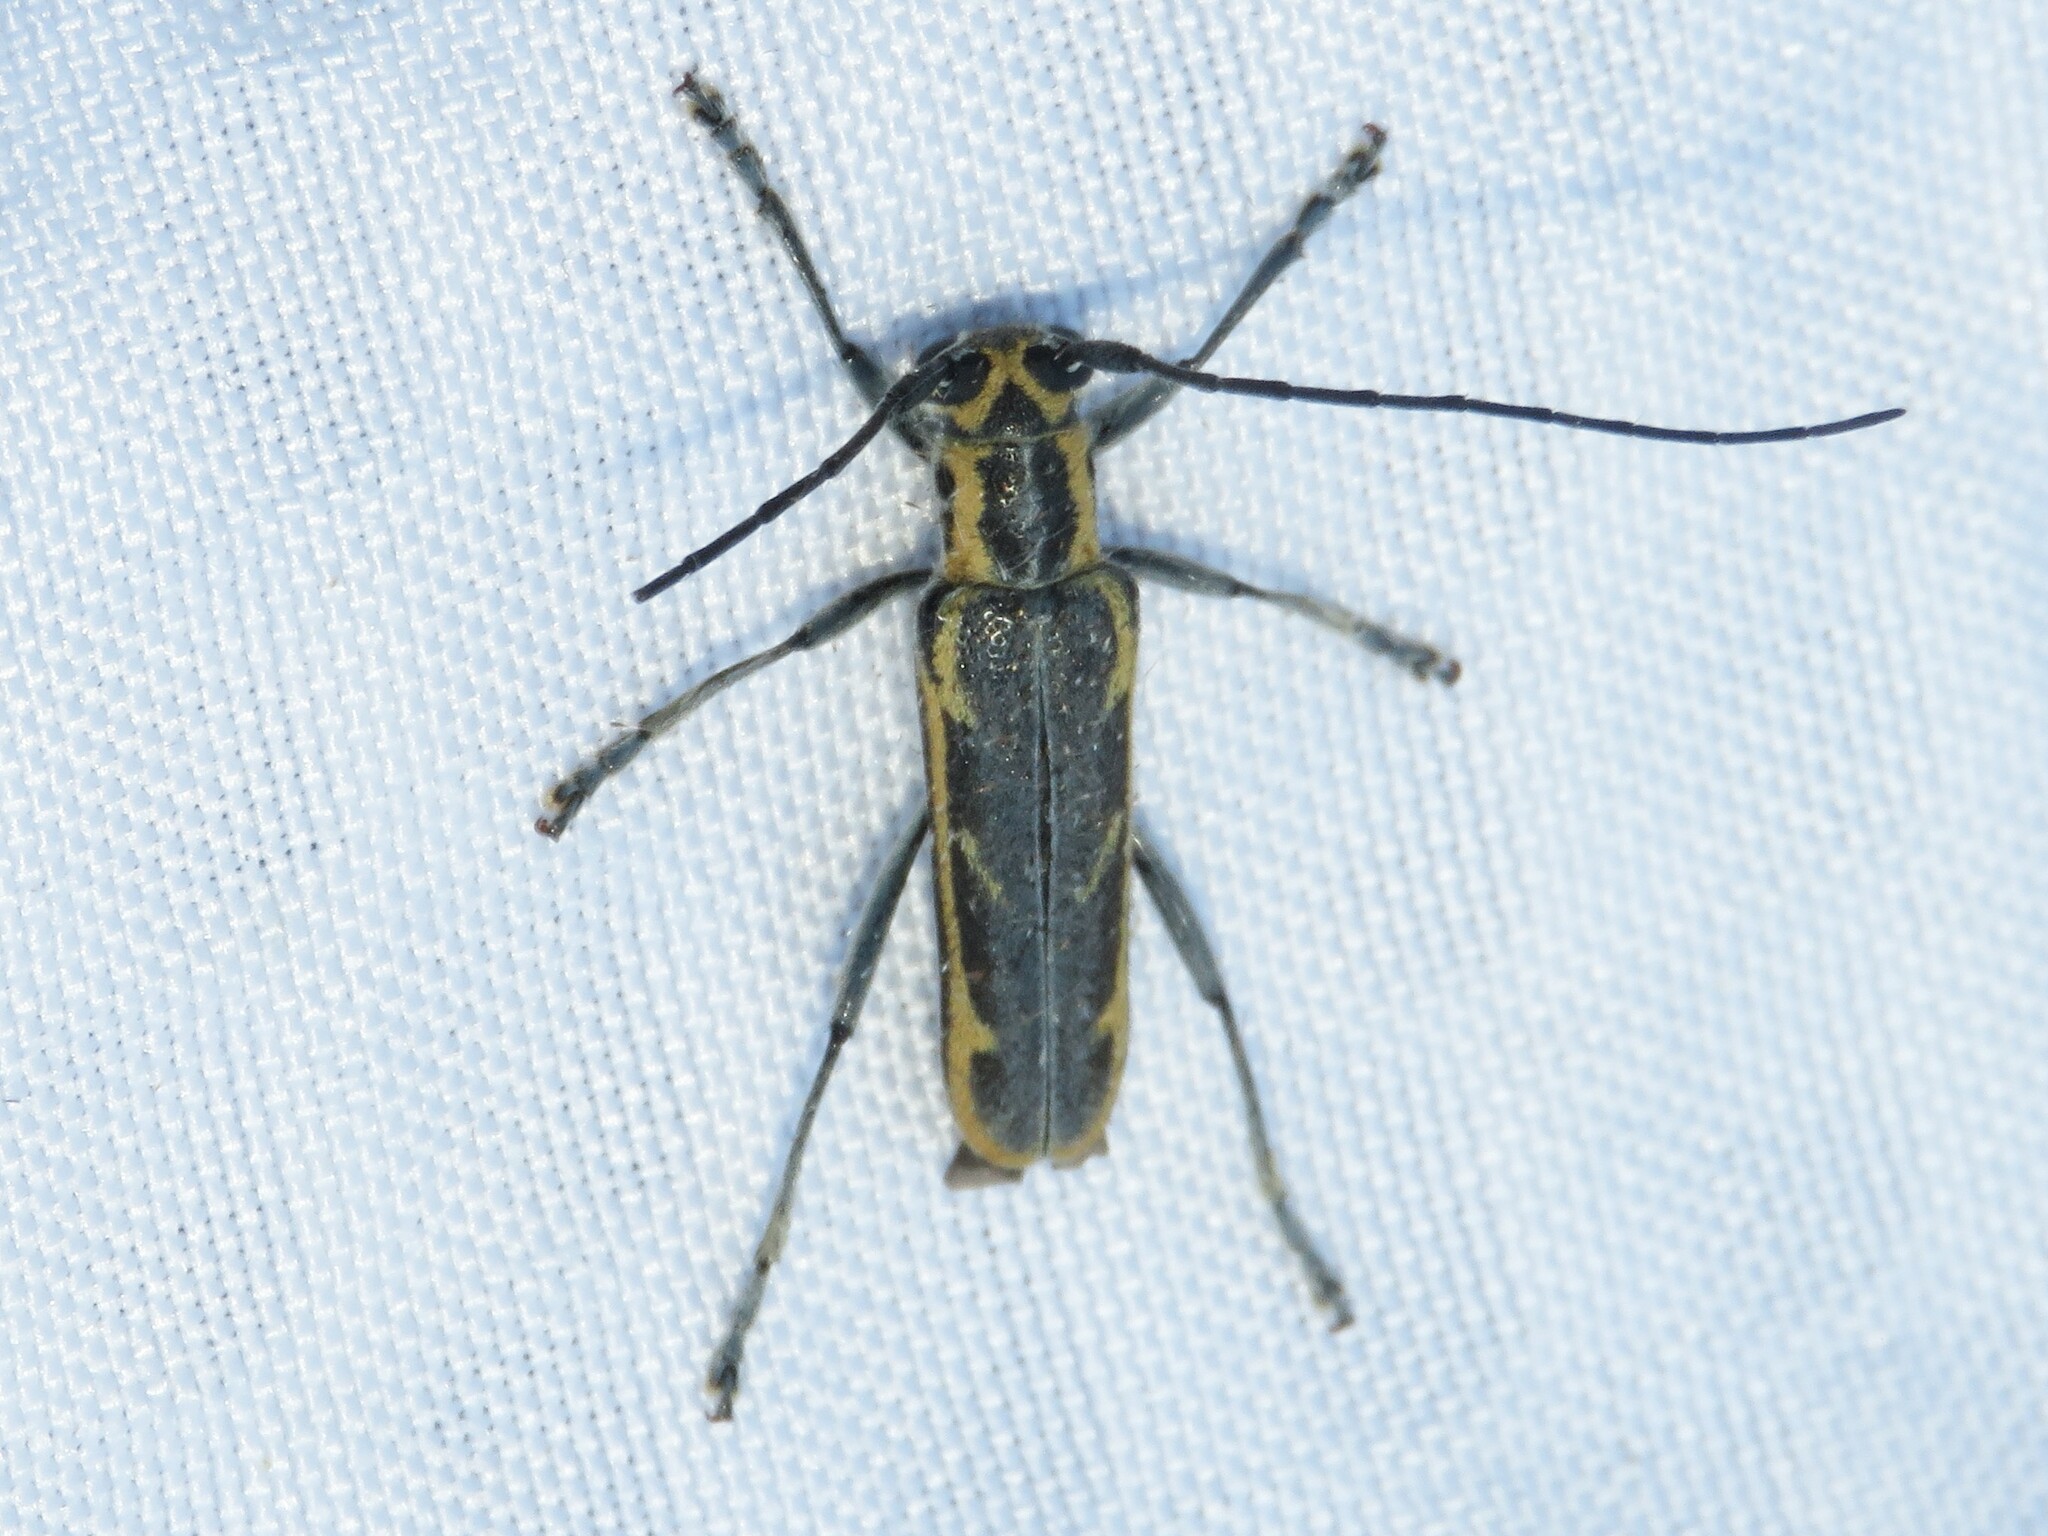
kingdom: Animalia
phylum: Arthropoda
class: Insecta
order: Coleoptera
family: Cerambycidae
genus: Saperda
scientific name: Saperda imitans
